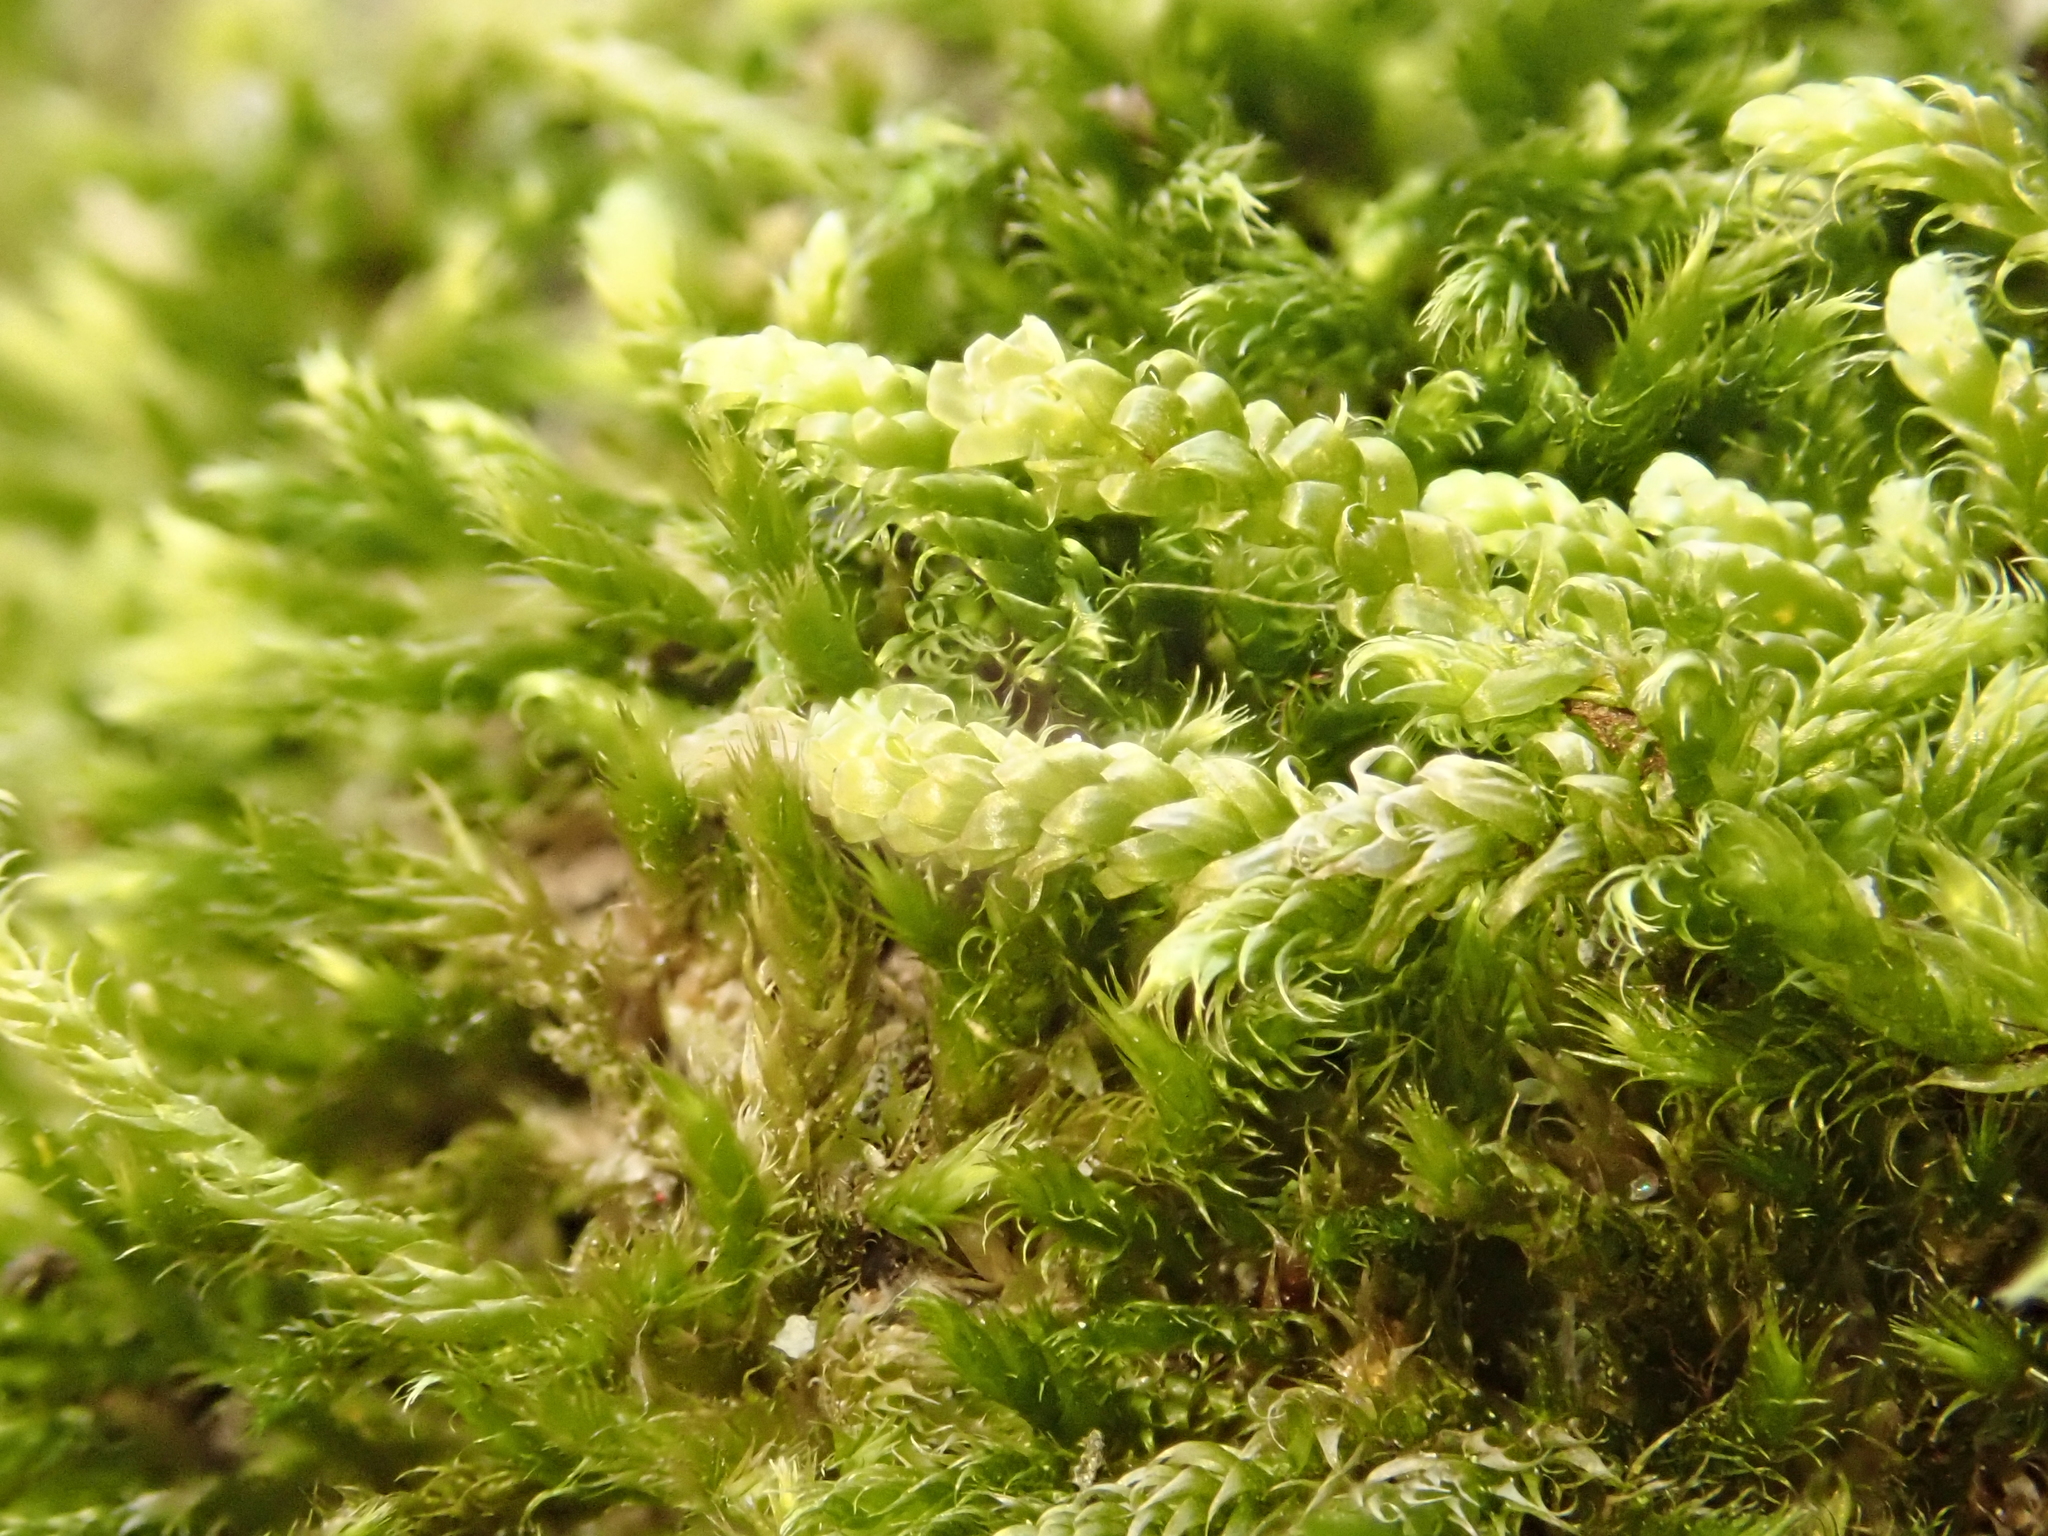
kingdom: Plantae
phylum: Bryophyta
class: Bryopsida
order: Hypnales
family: Hypnaceae
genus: Hypnum
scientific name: Hypnum cupressiforme
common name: Cypress-leaved plait-moss
